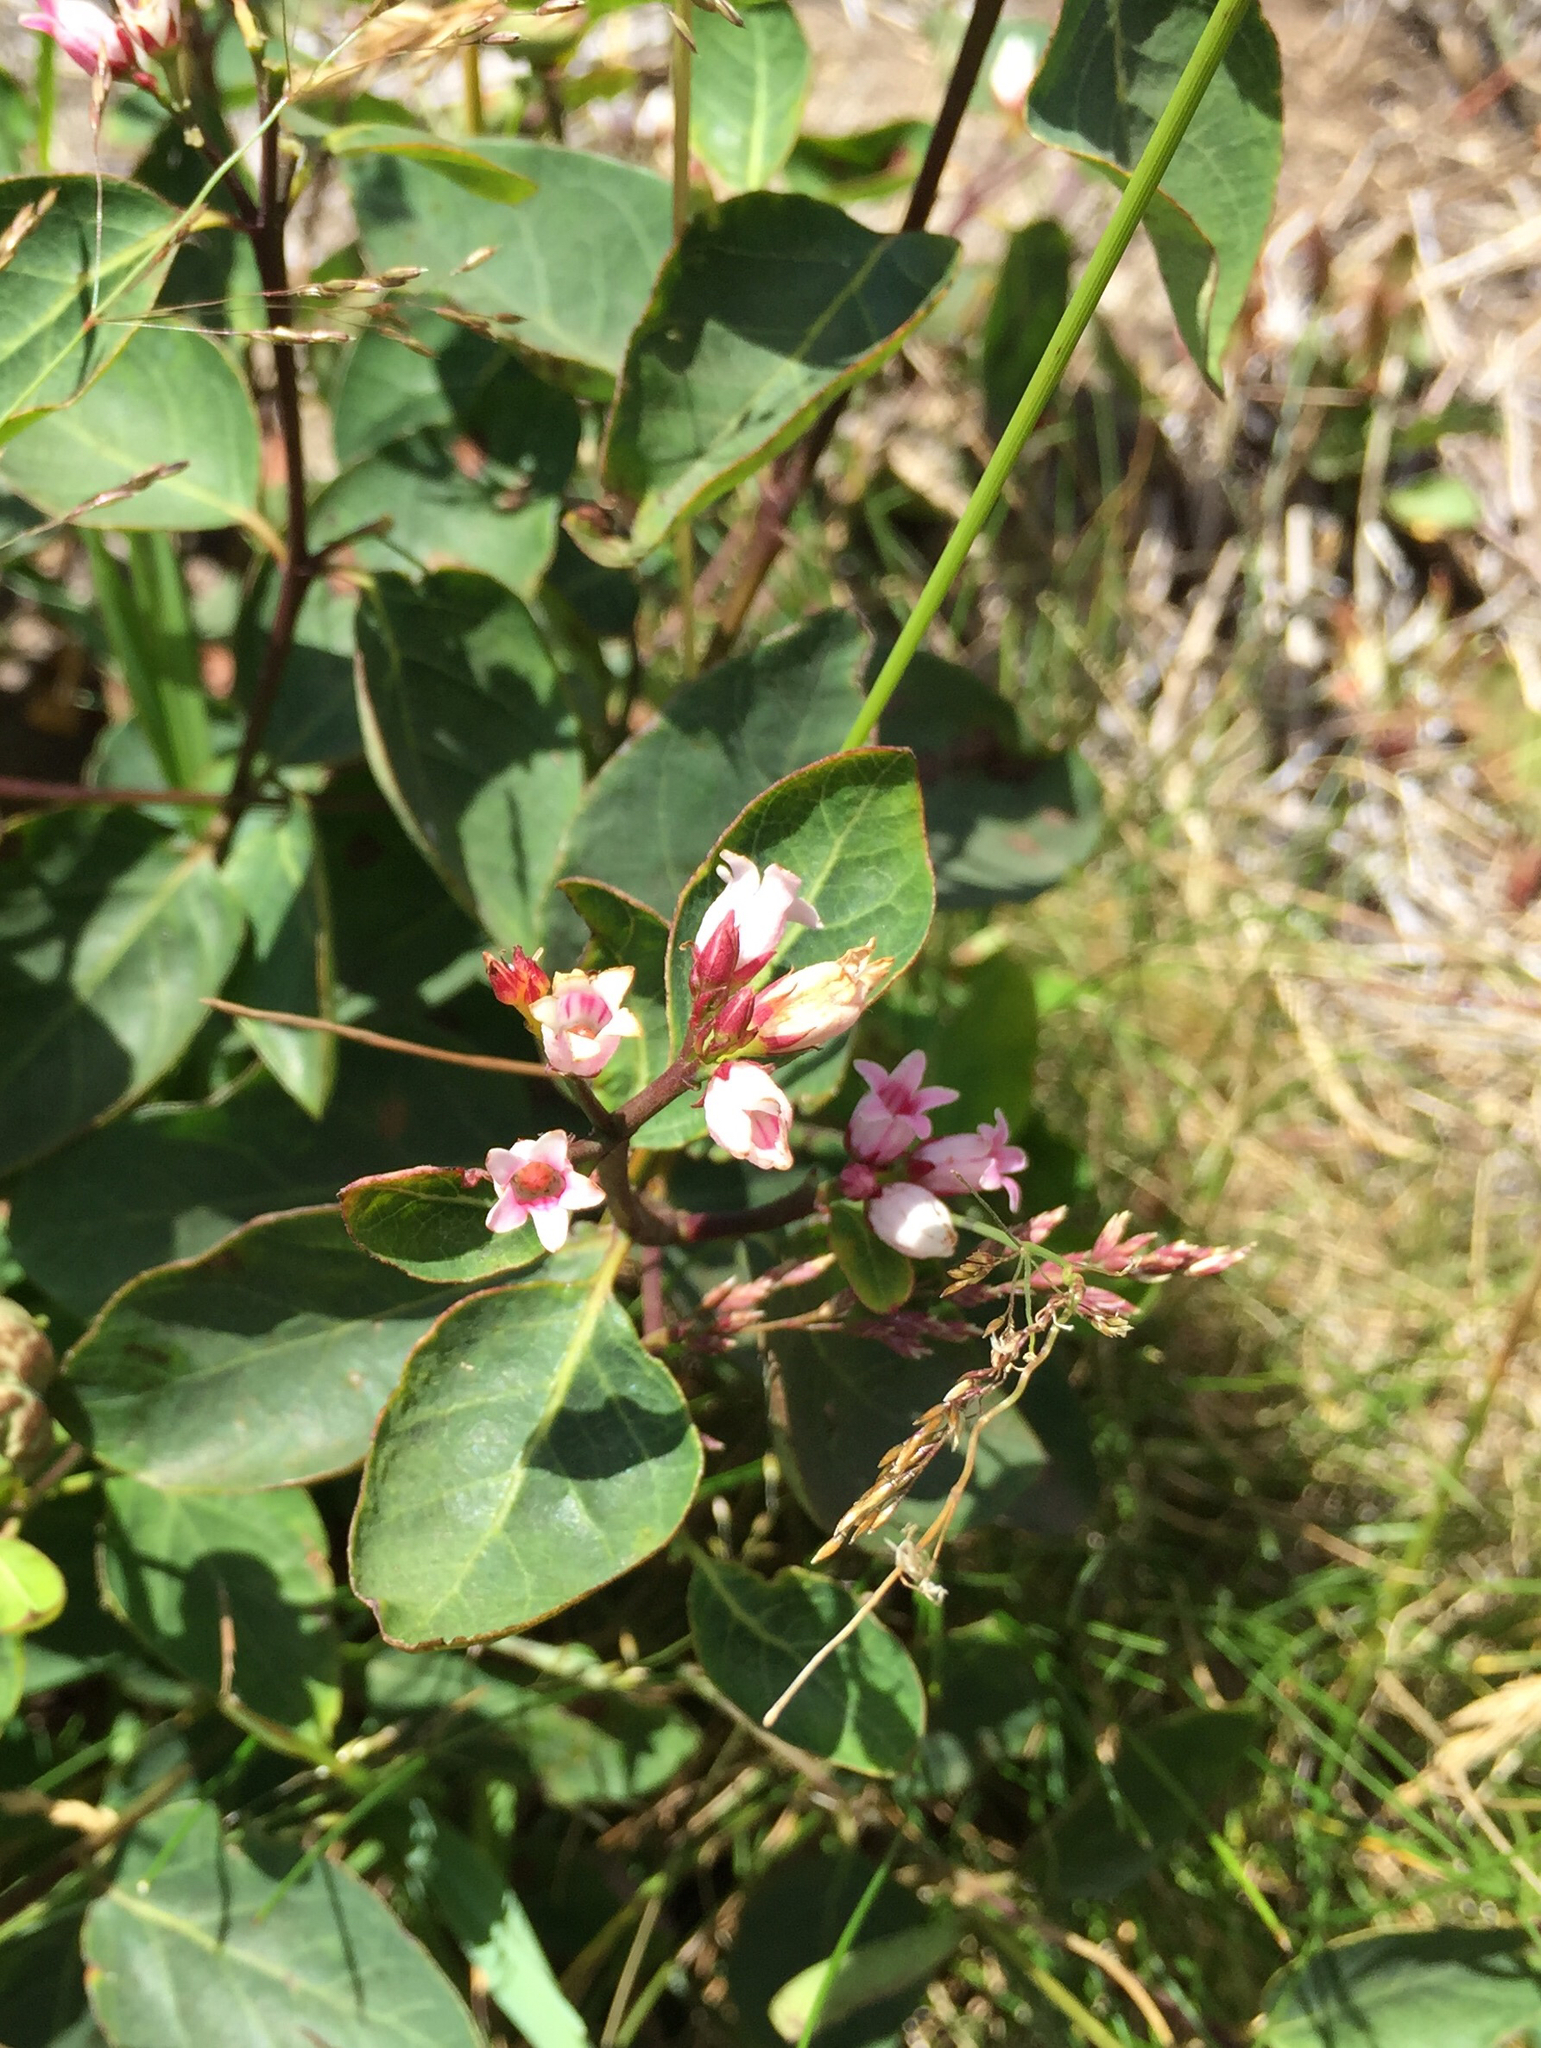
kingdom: Plantae
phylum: Tracheophyta
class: Magnoliopsida
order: Gentianales
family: Apocynaceae
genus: Apocynum
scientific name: Apocynum androsaemifolium
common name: Spreading dogbane
